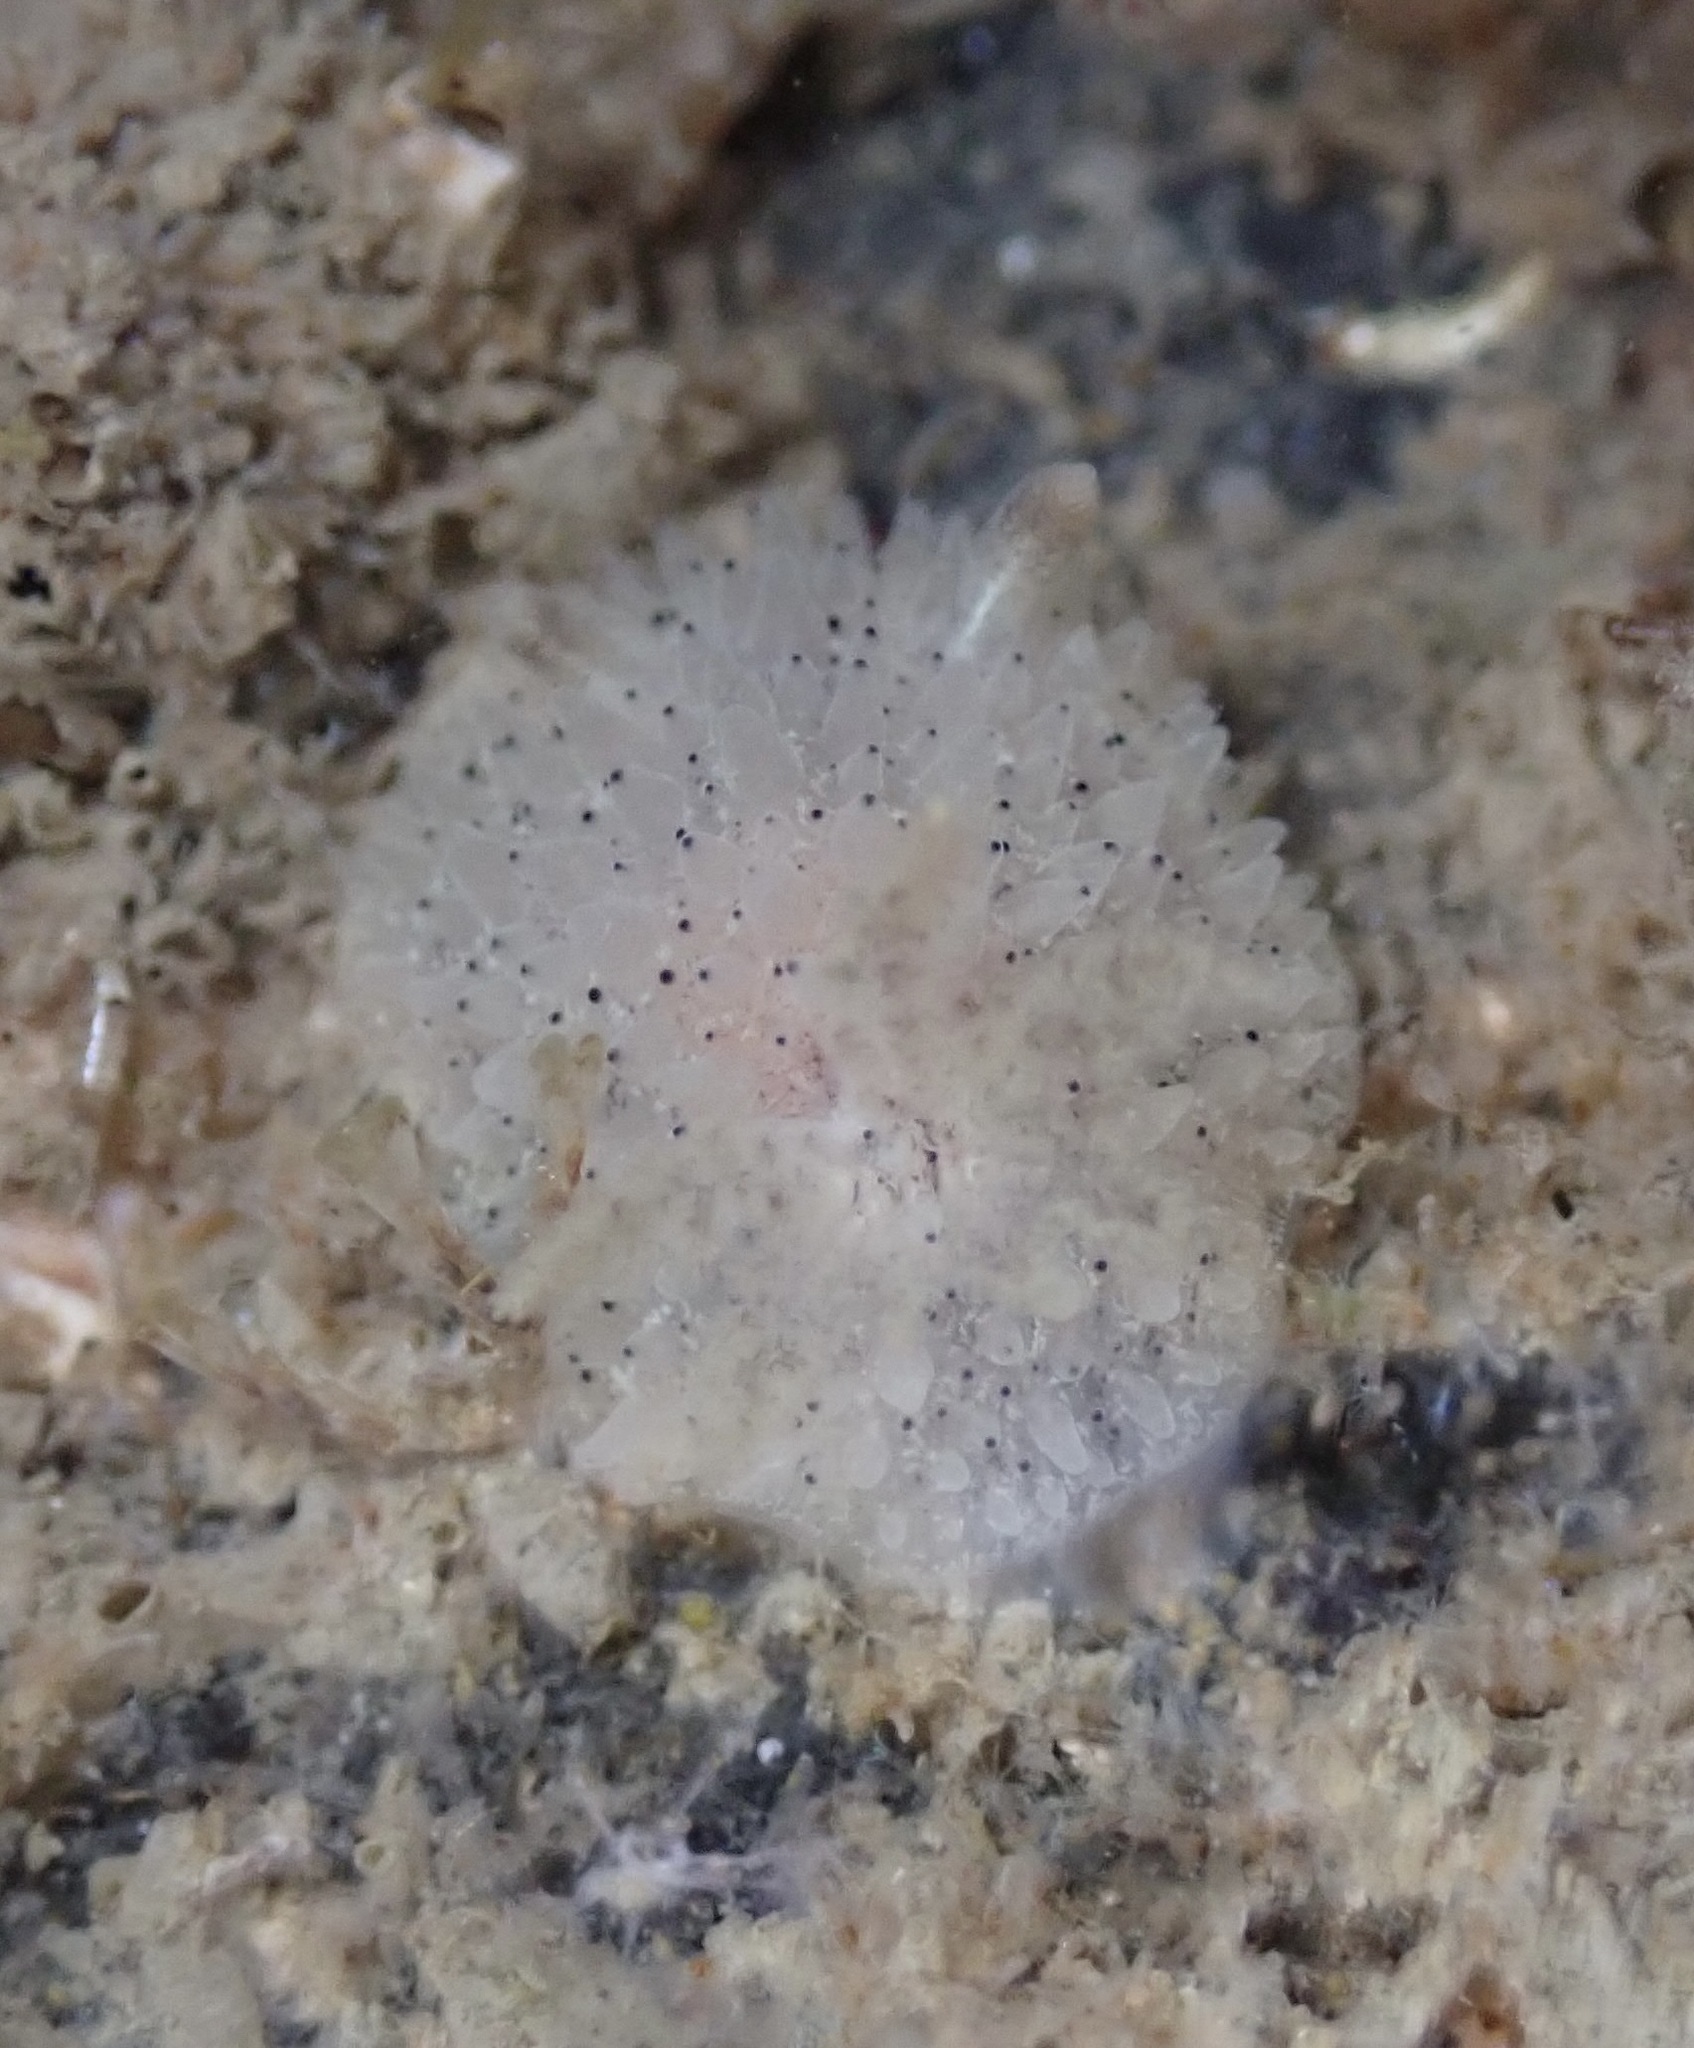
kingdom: Animalia
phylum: Mollusca
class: Gastropoda
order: Nudibranchia
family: Onchidorididae
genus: Acanthodoris
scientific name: Acanthodoris rhodoceras
